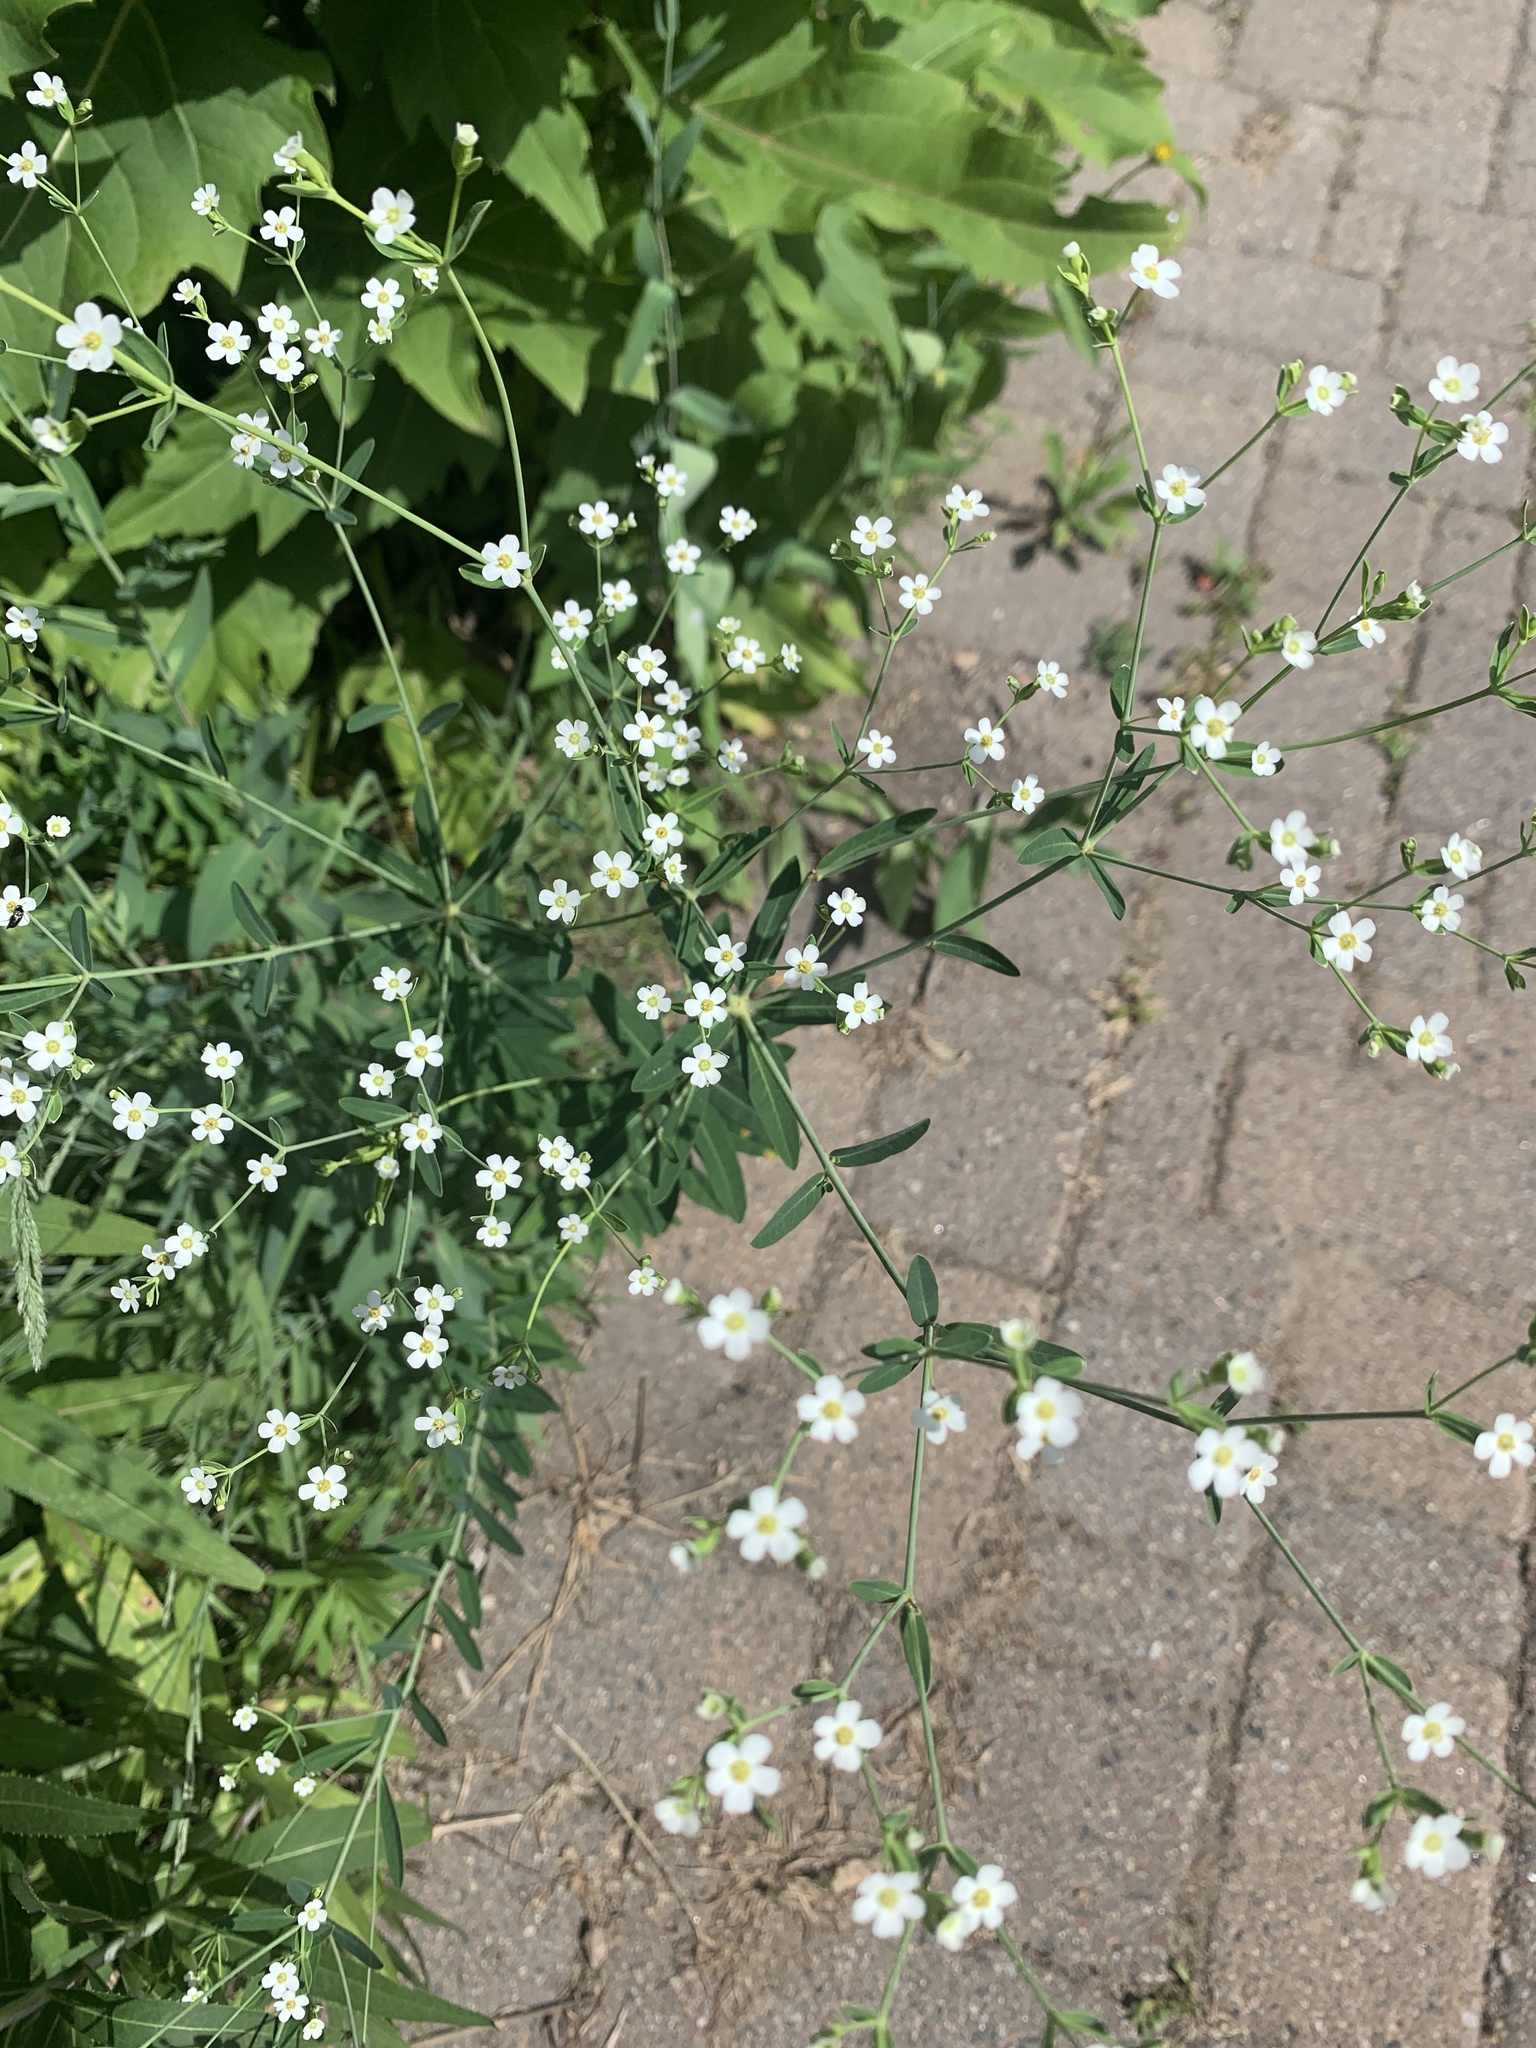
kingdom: Plantae
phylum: Tracheophyta
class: Magnoliopsida
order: Malpighiales
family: Euphorbiaceae
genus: Euphorbia
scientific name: Euphorbia corollata
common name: Flowering spurge
